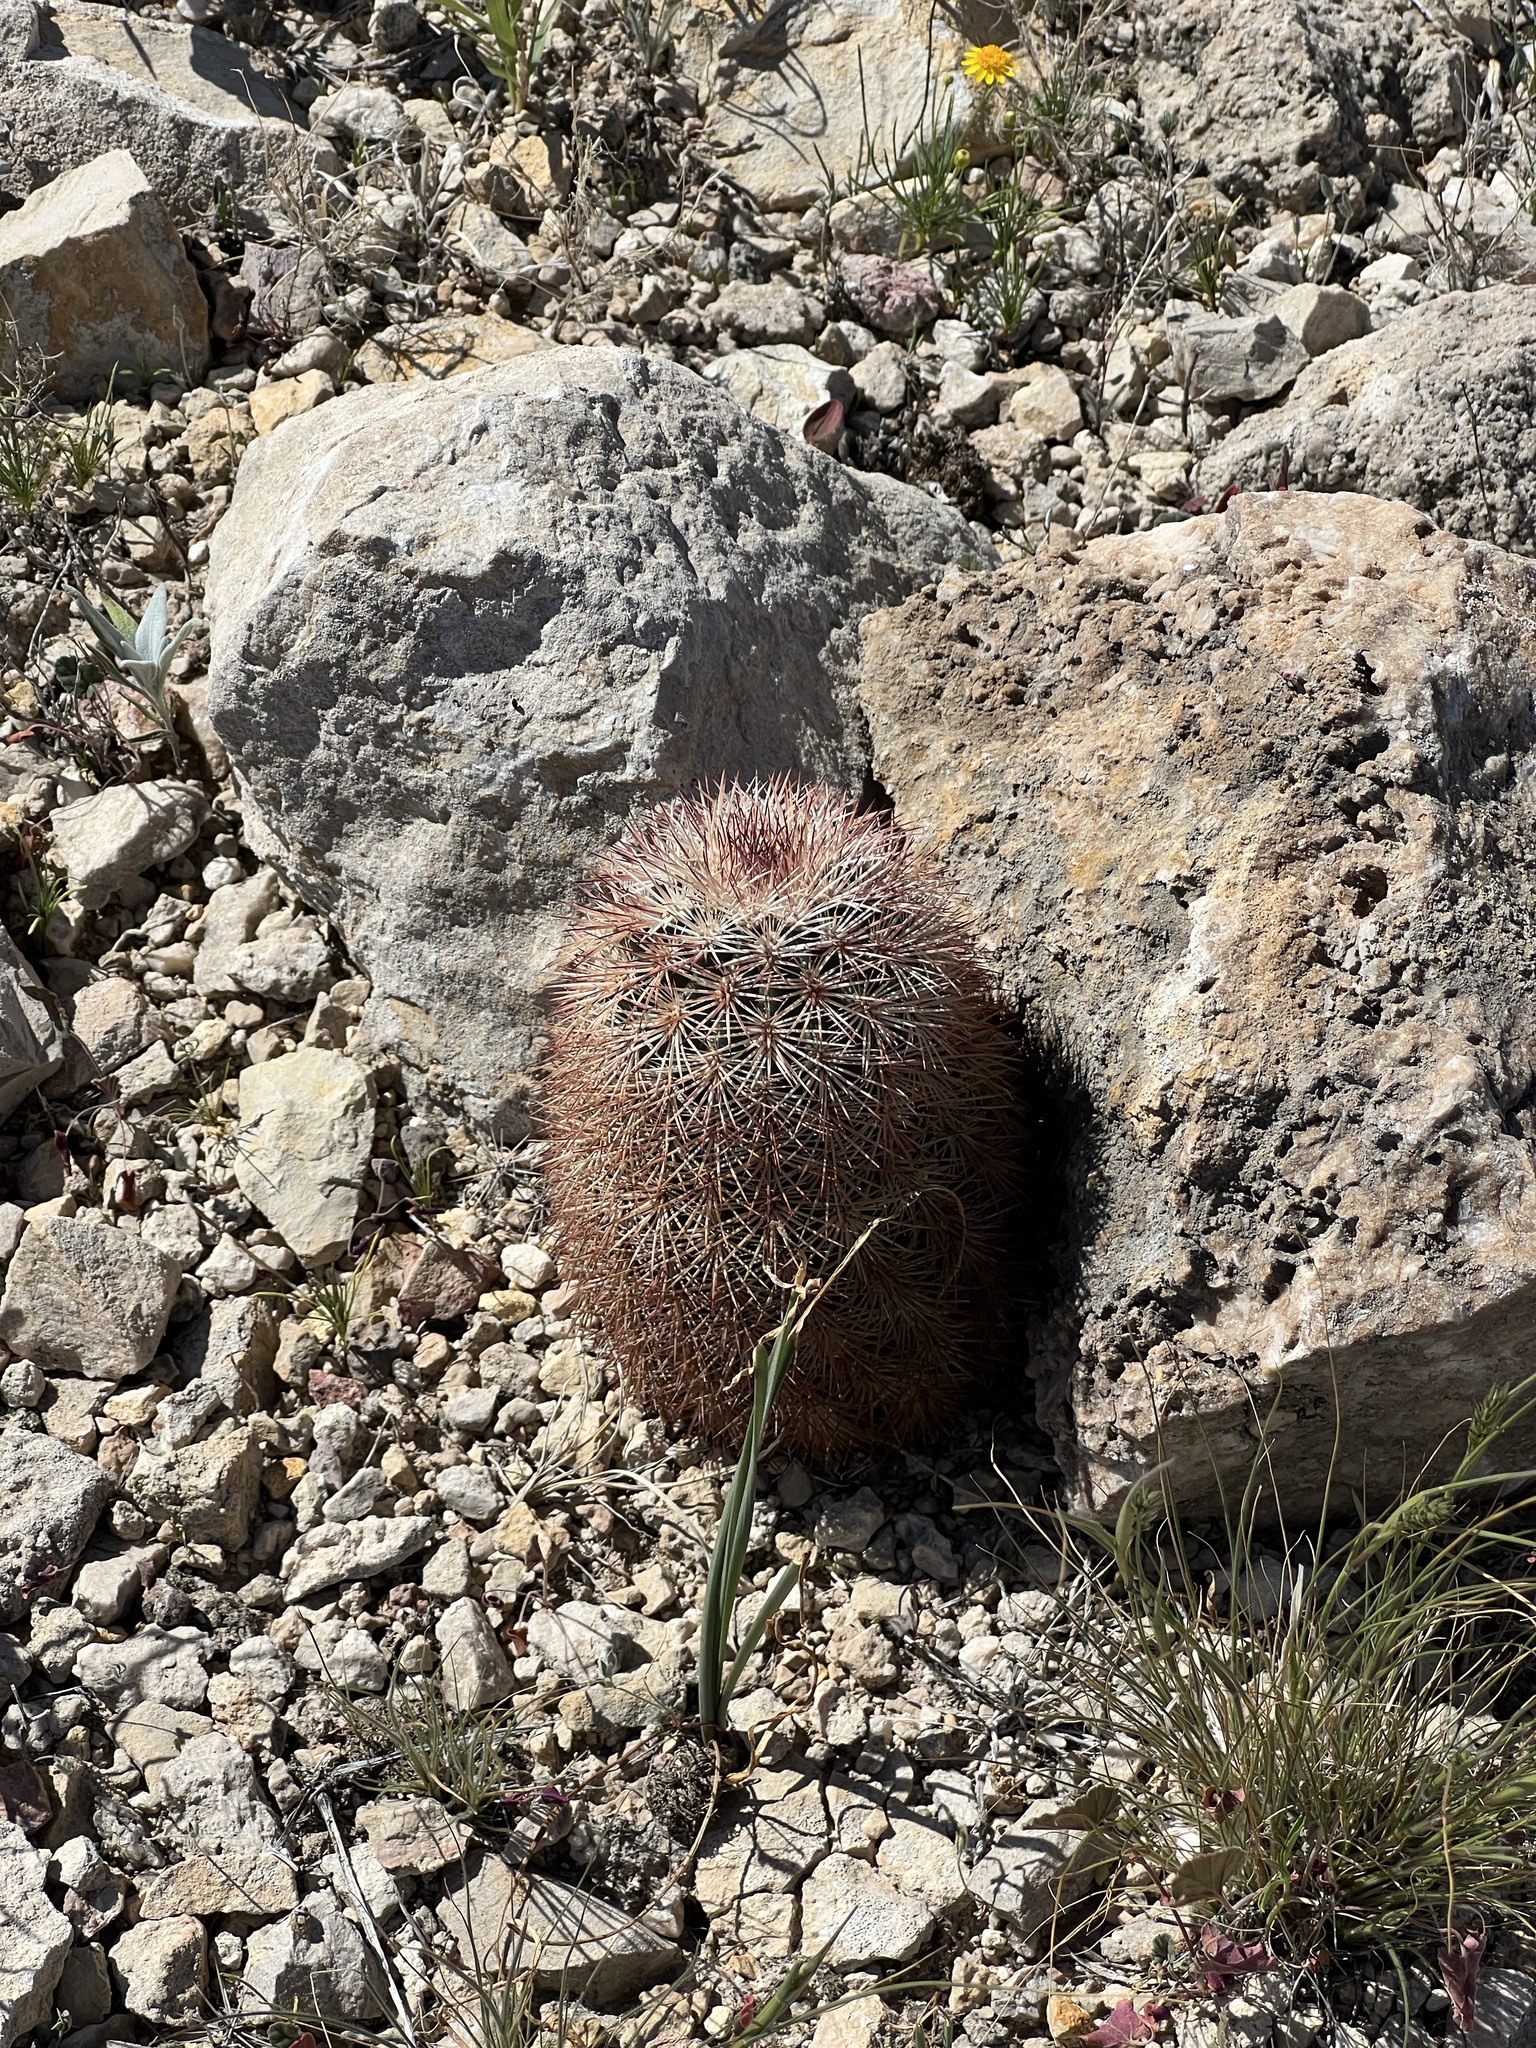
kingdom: Plantae
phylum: Tracheophyta
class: Magnoliopsida
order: Caryophyllales
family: Cactaceae
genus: Echinocereus
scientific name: Echinocereus dasyacanthus
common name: Spiny hedgehog cactus
